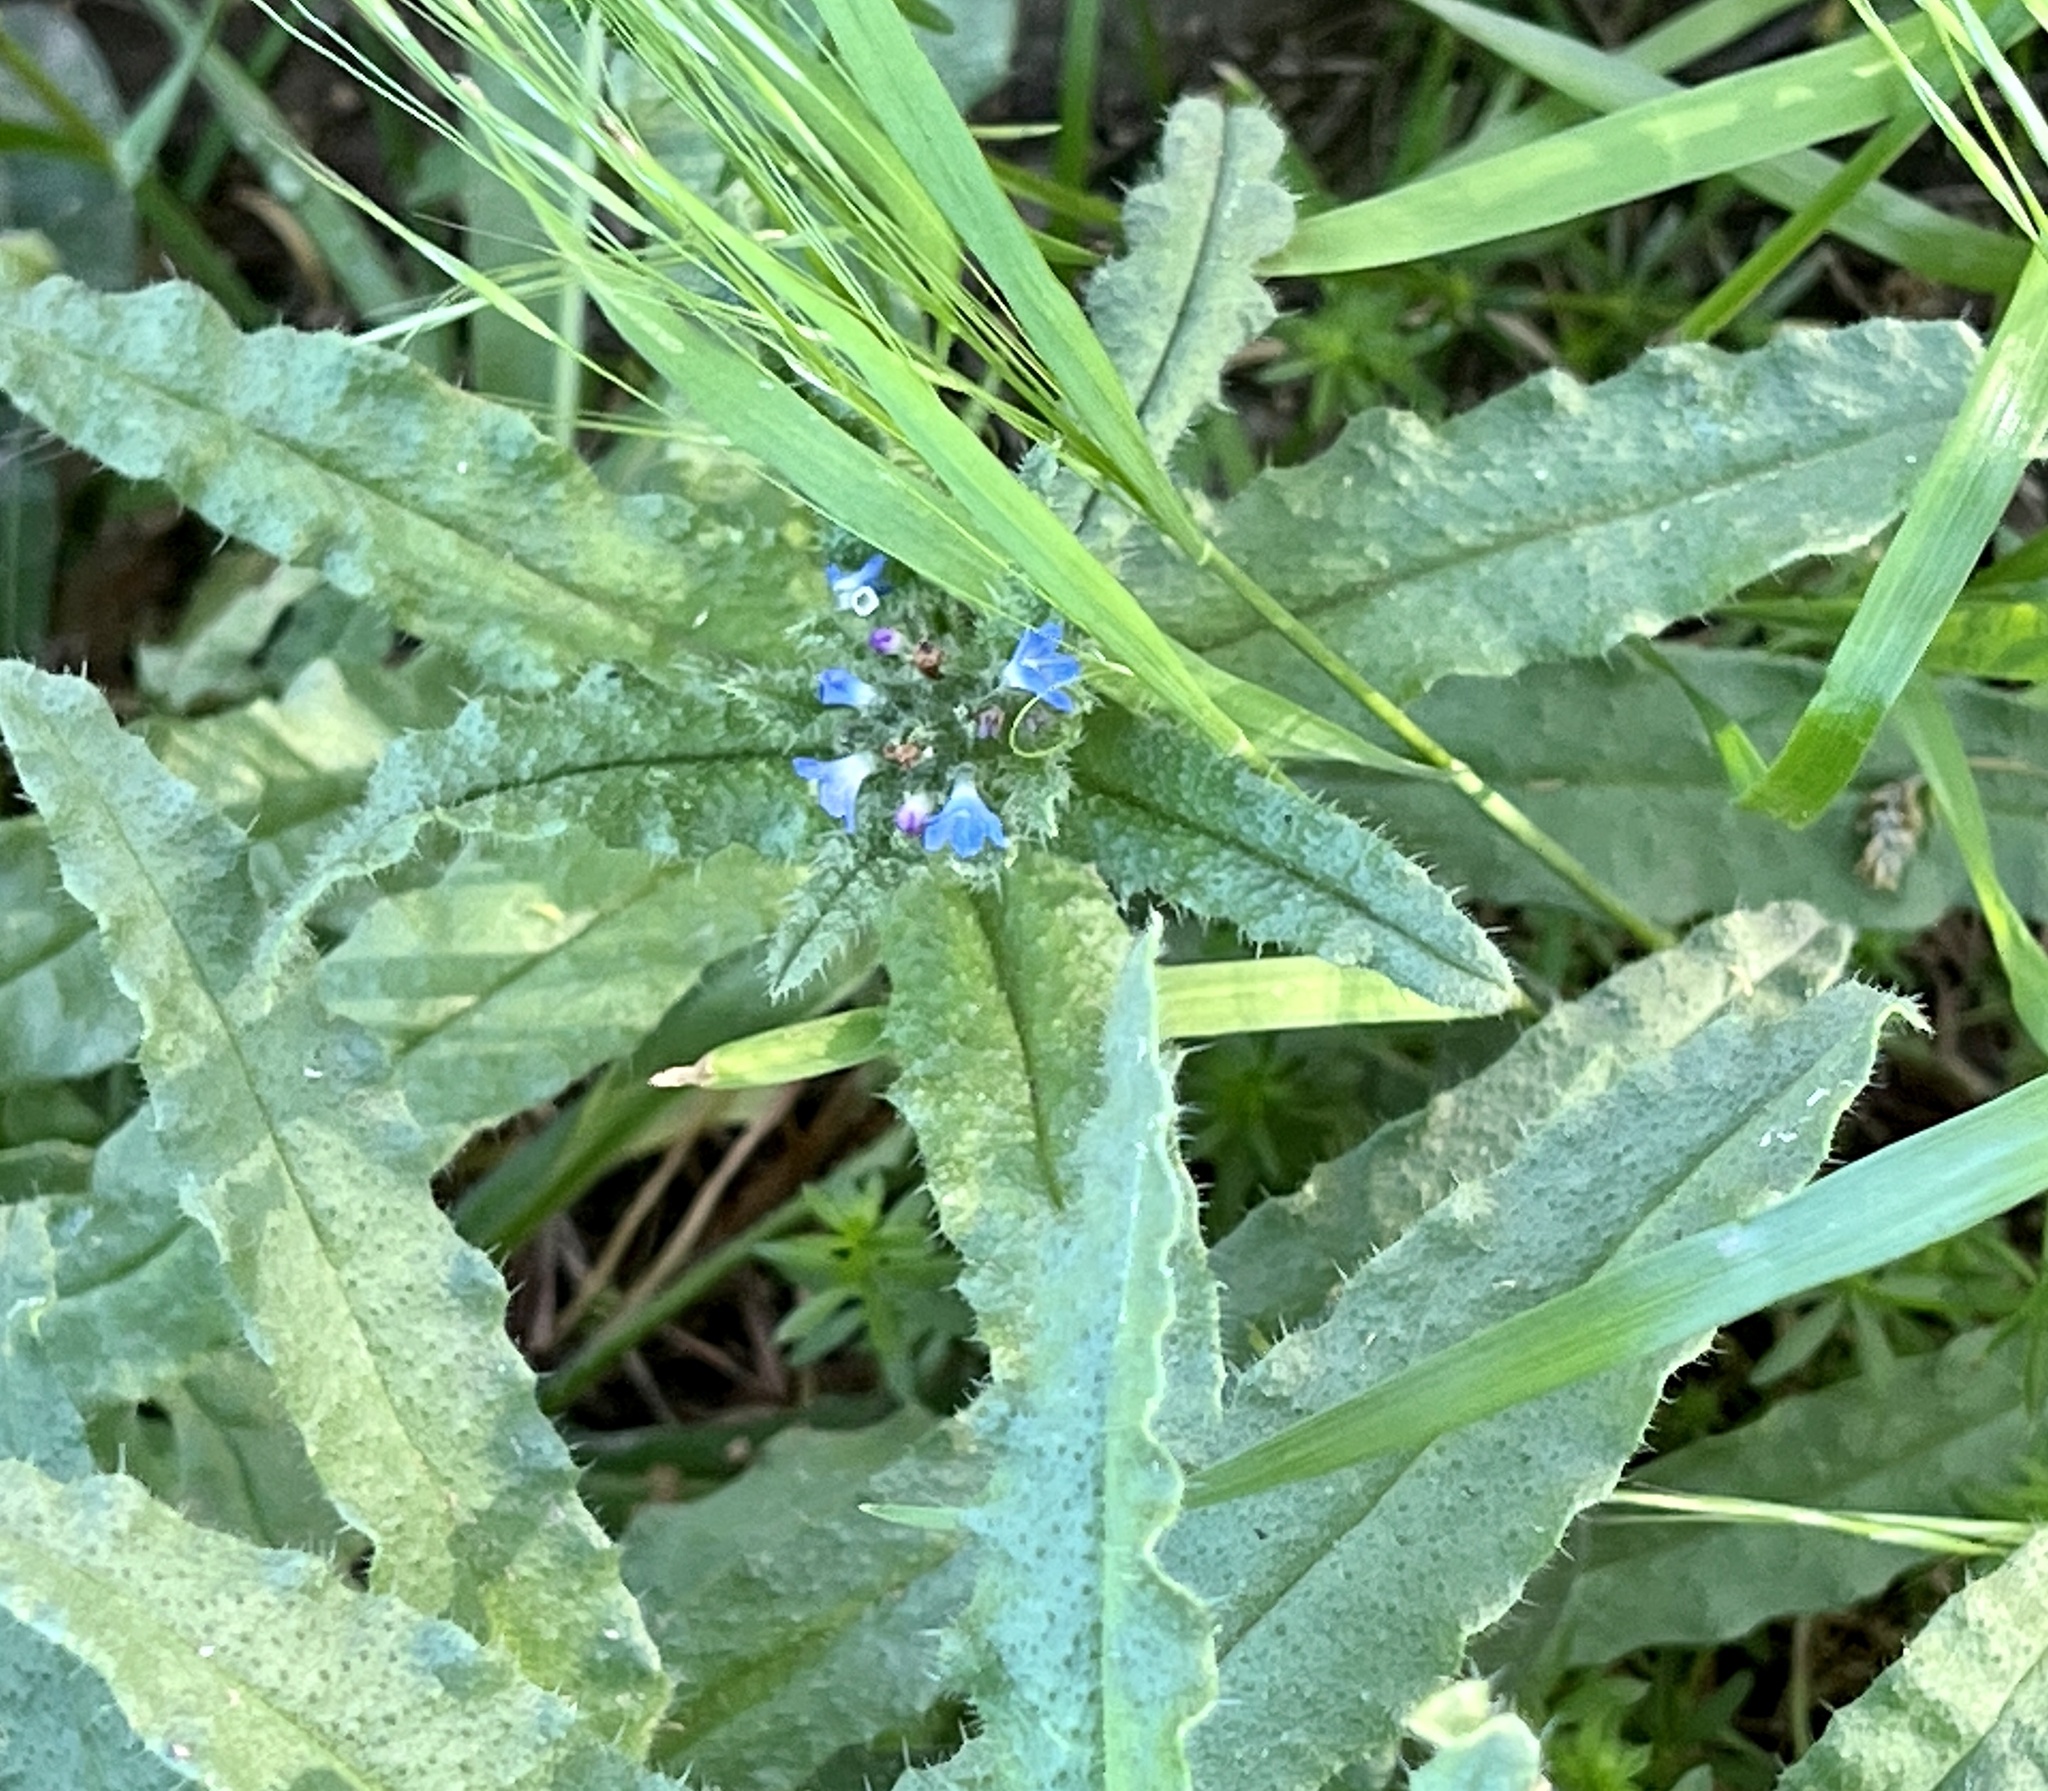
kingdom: Plantae
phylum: Tracheophyta
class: Magnoliopsida
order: Boraginales
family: Boraginaceae
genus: Lycopsis
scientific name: Lycopsis arvensis
